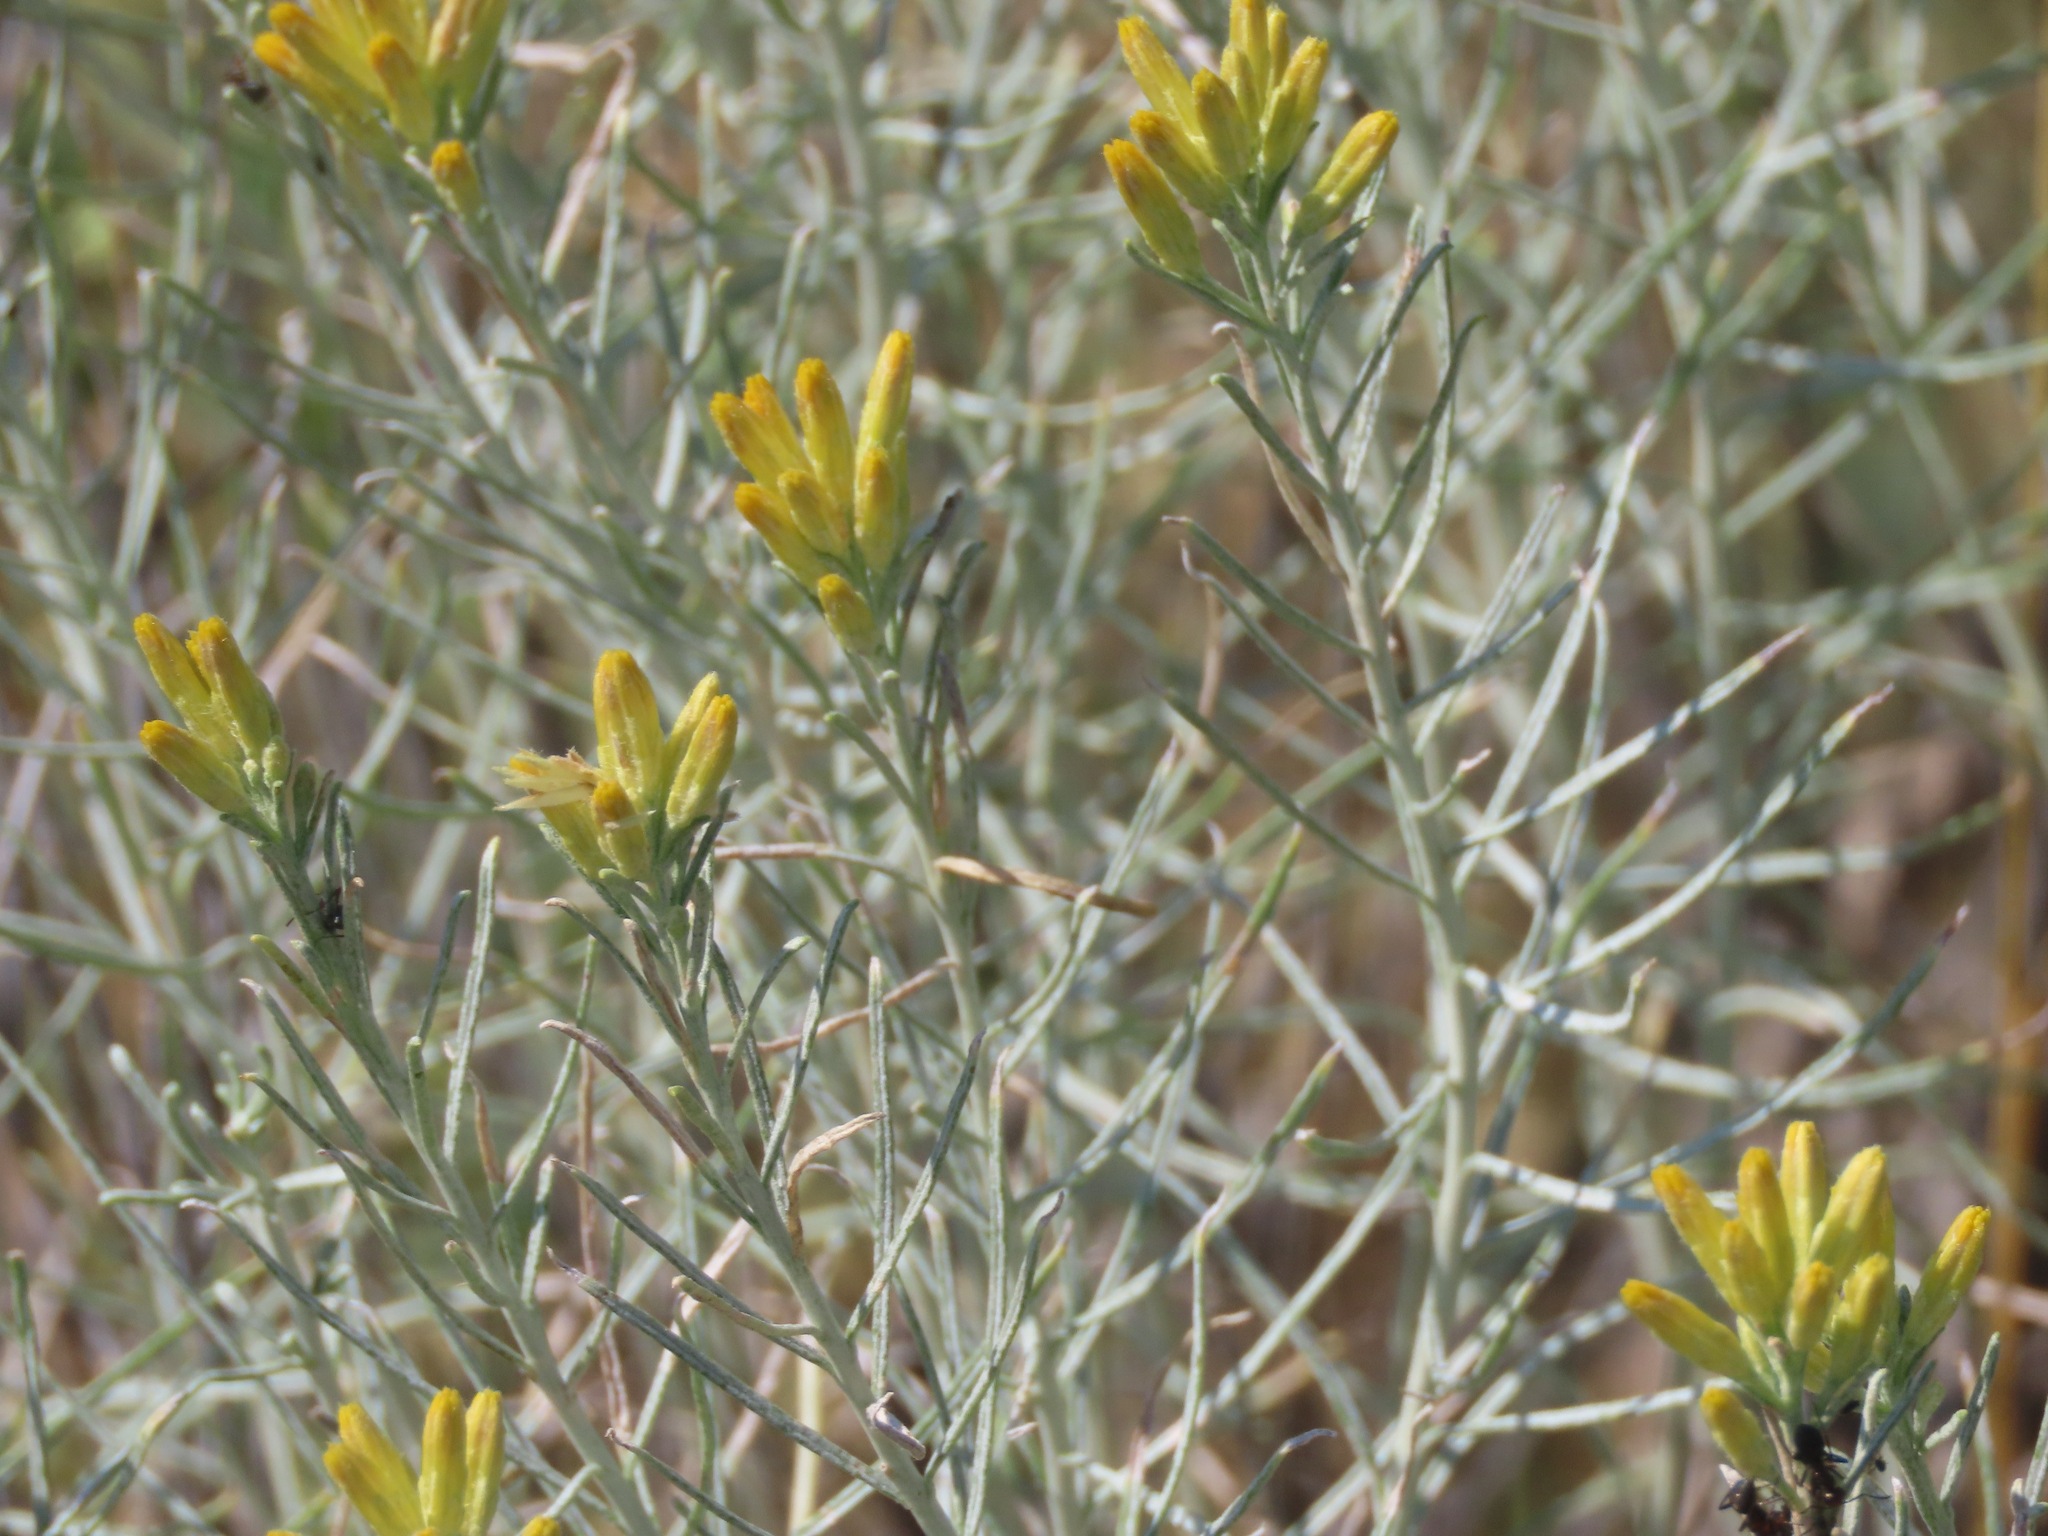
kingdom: Plantae
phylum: Tracheophyta
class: Magnoliopsida
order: Asterales
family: Asteraceae
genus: Ericameria
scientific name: Ericameria nauseosa
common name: Rubber rabbitbrush
